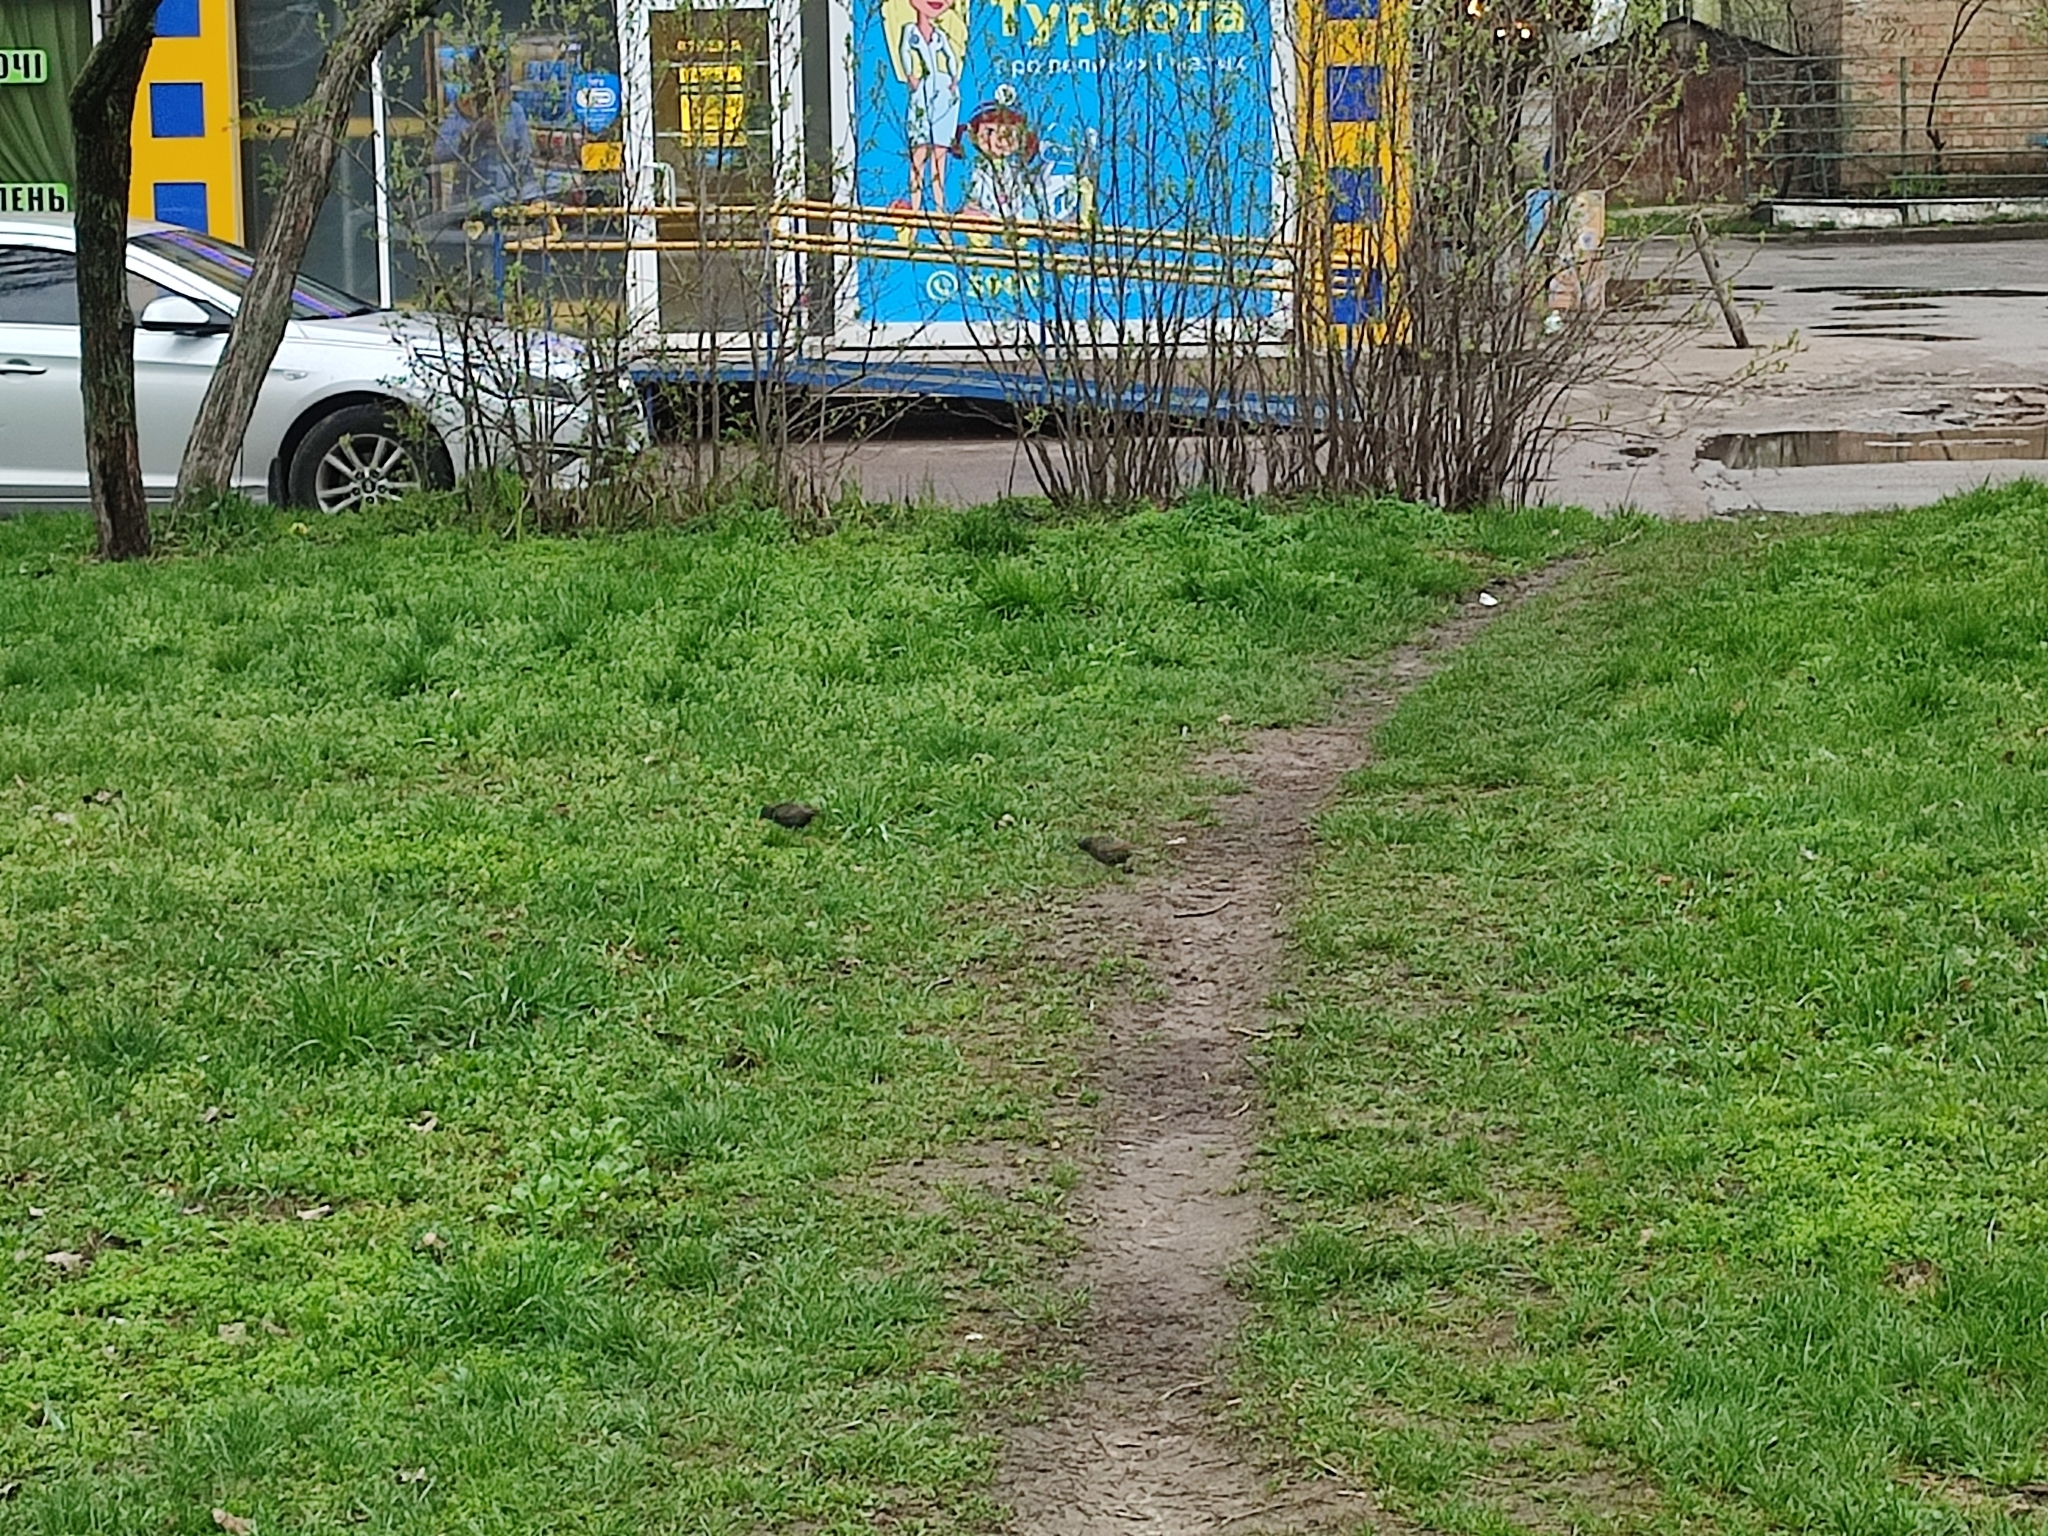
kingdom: Animalia
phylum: Chordata
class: Aves
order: Passeriformes
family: Sturnidae
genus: Sturnus
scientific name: Sturnus vulgaris
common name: Common starling
